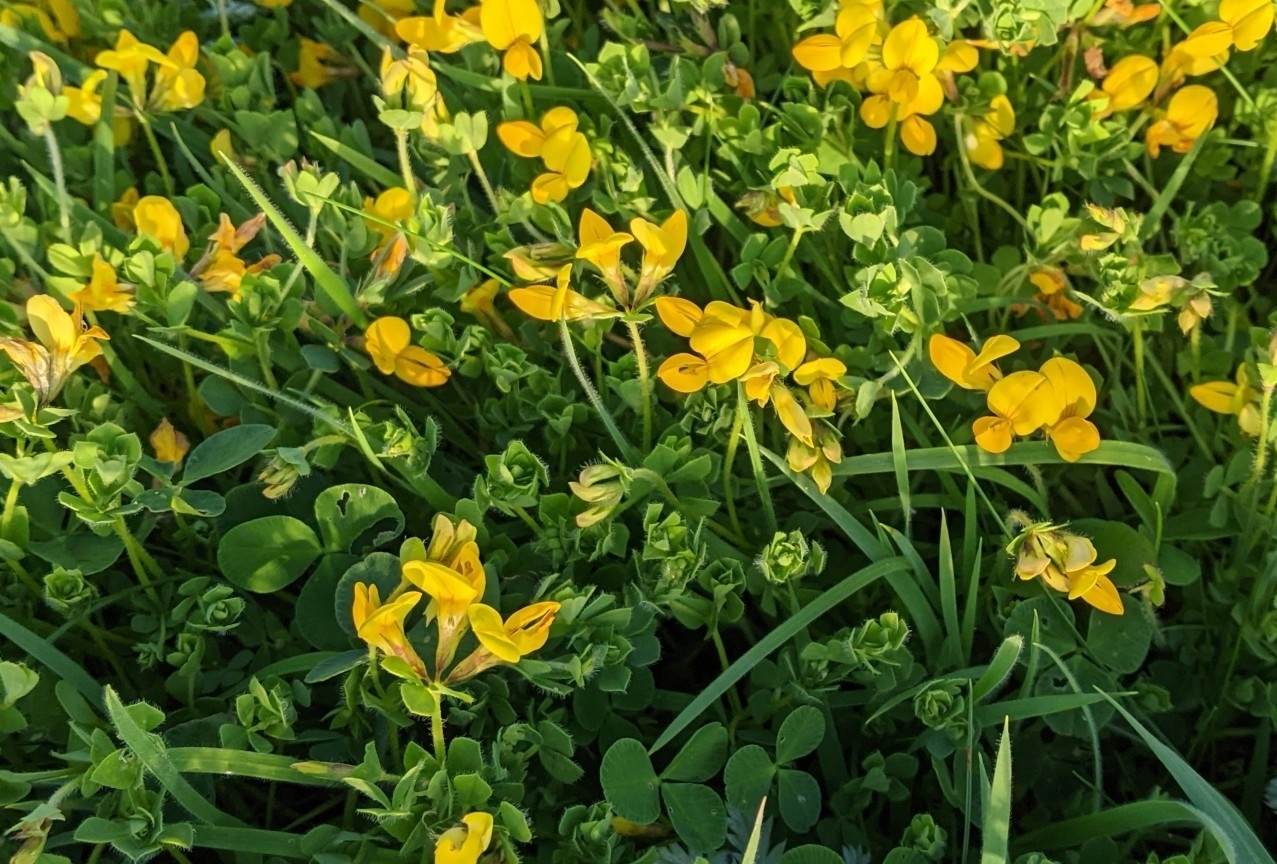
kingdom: Plantae
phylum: Tracheophyta
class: Magnoliopsida
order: Fabales
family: Fabaceae
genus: Lotus
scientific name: Lotus corniculatus
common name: Common bird's-foot-trefoil
